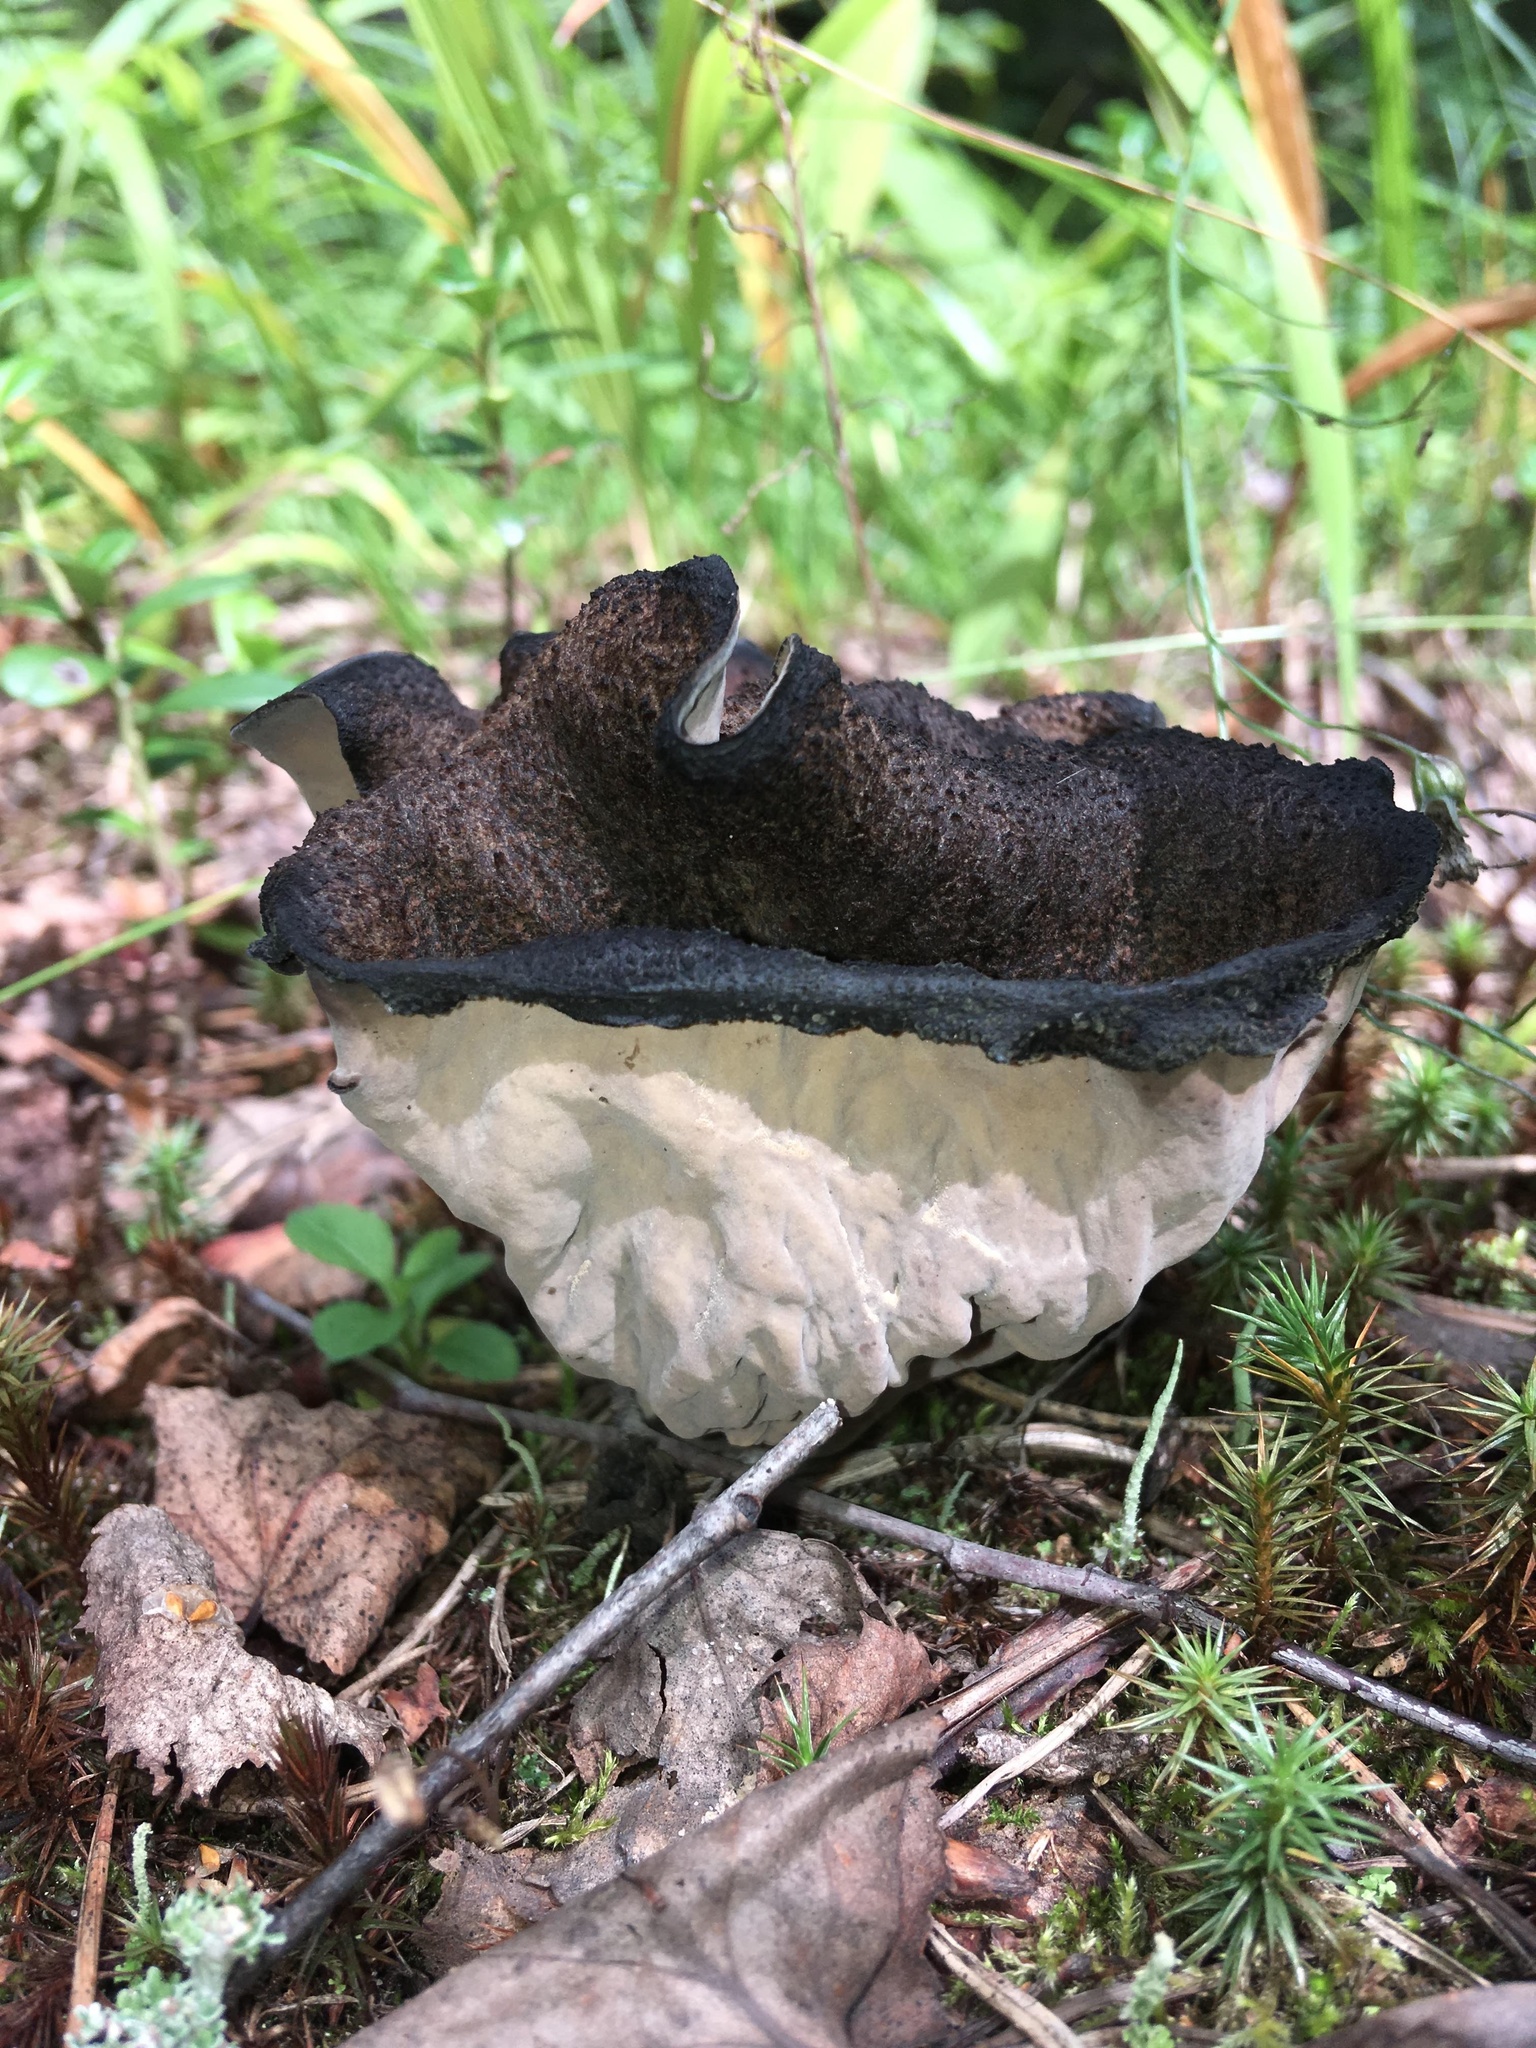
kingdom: Fungi
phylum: Basidiomycota
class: Agaricomycetes
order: Cantharellales
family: Hydnaceae
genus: Craterellus
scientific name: Craterellus cornucopioides
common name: Horn of plenty
